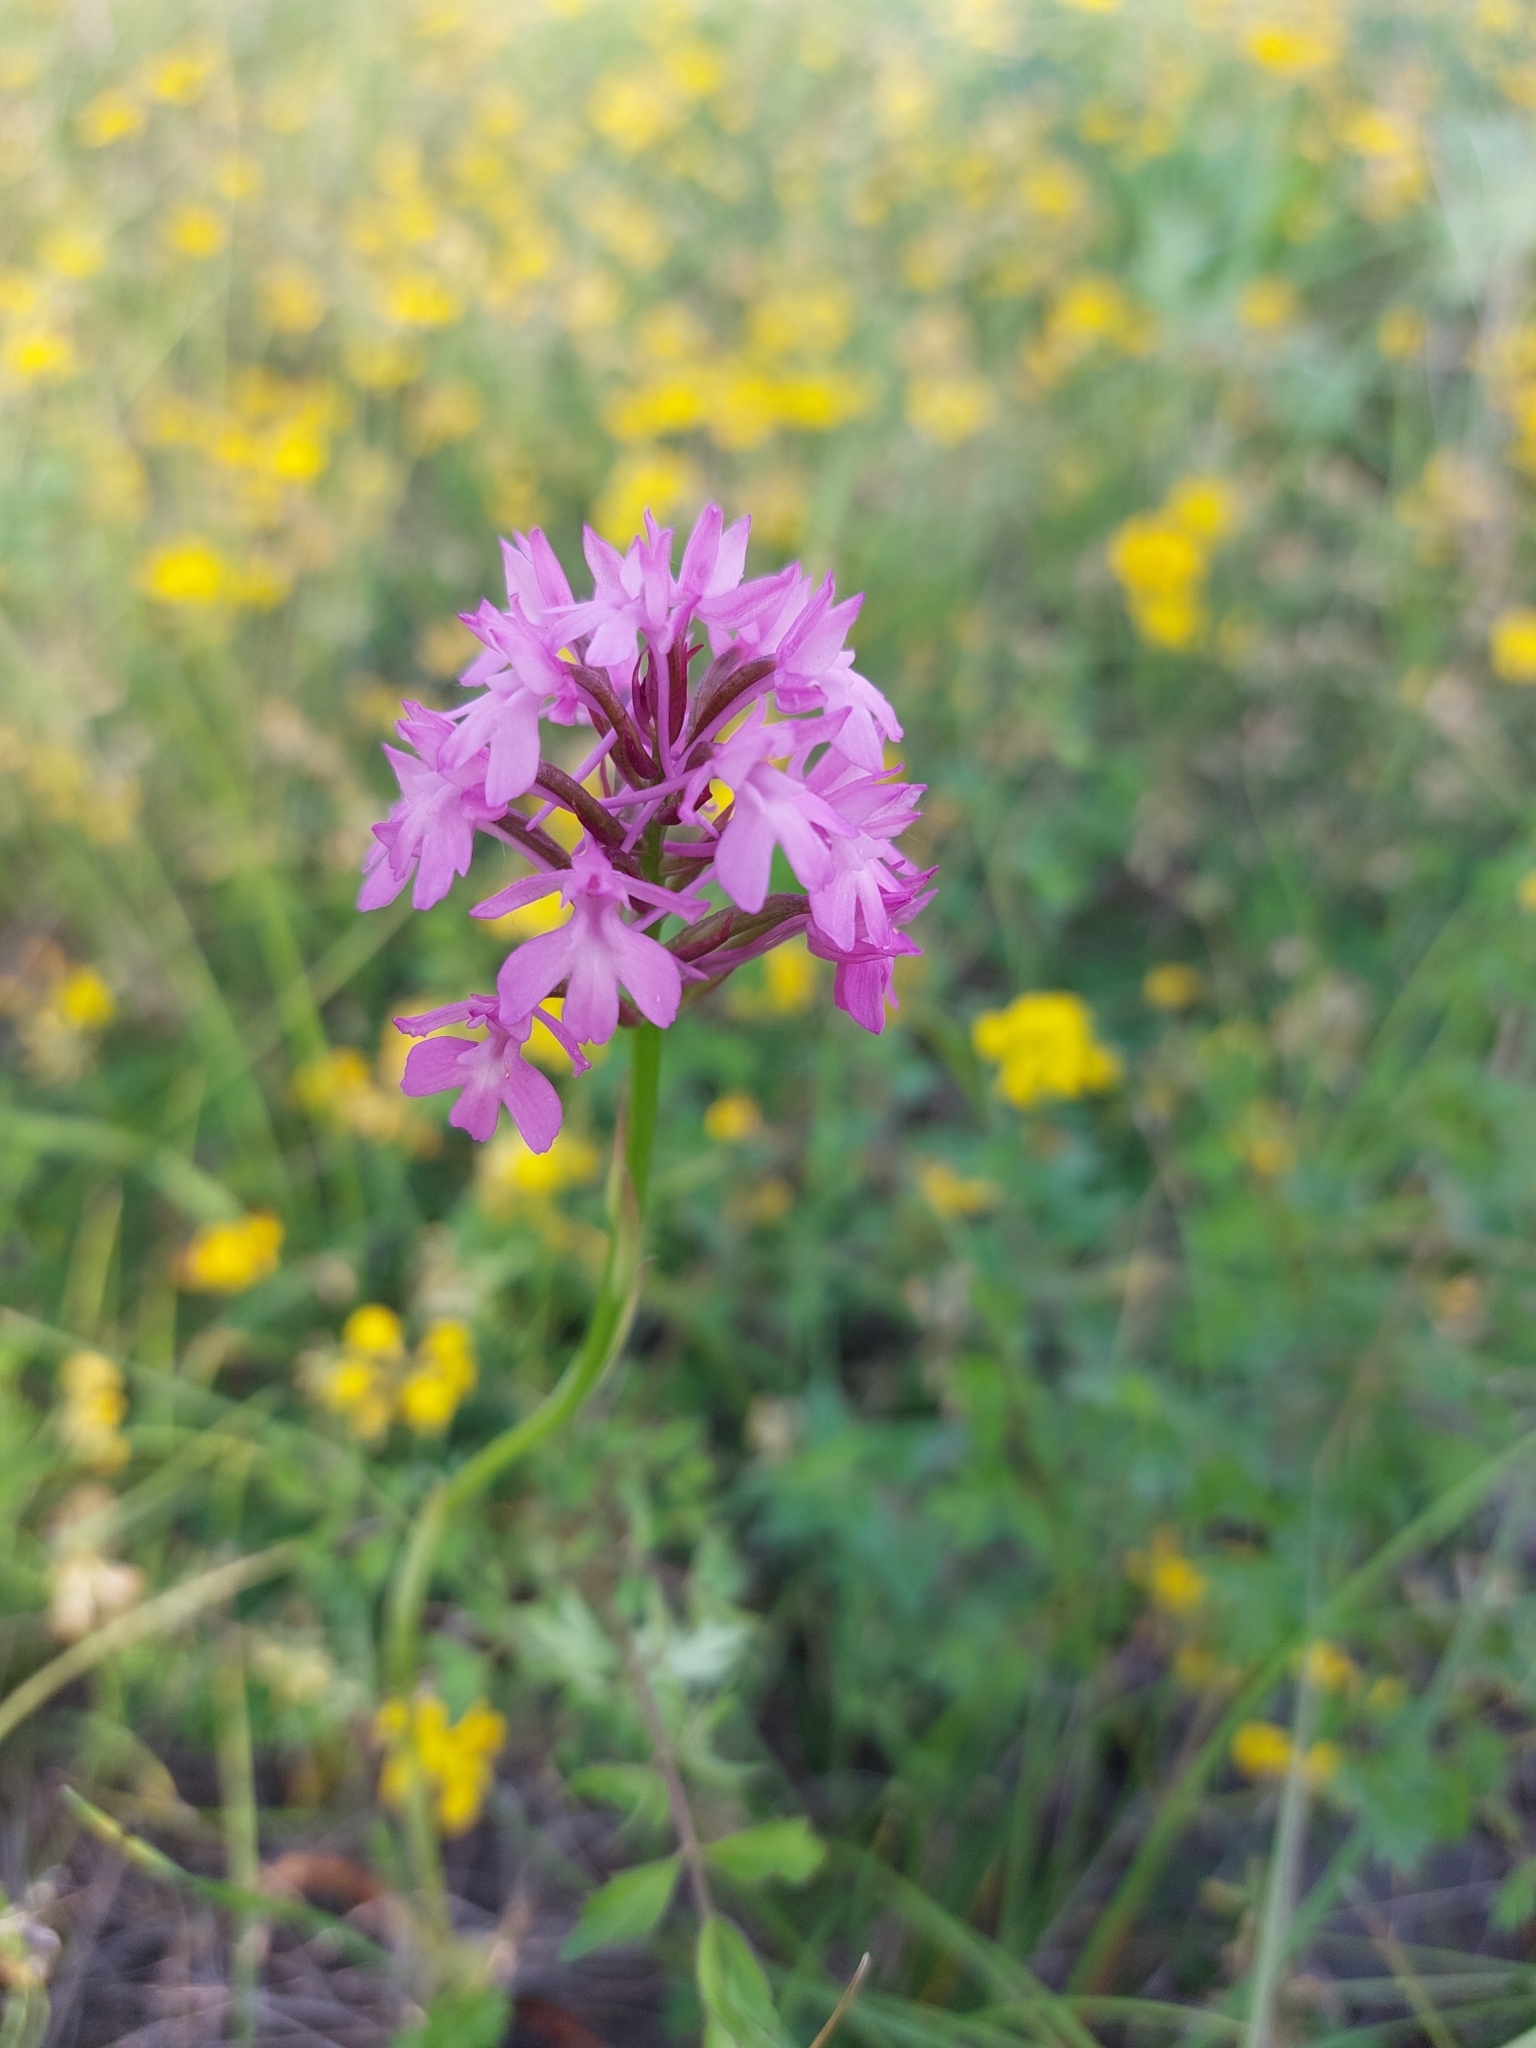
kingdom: Plantae
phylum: Tracheophyta
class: Liliopsida
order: Asparagales
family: Orchidaceae
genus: Anacamptis
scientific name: Anacamptis pyramidalis
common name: Pyramidal orchid
